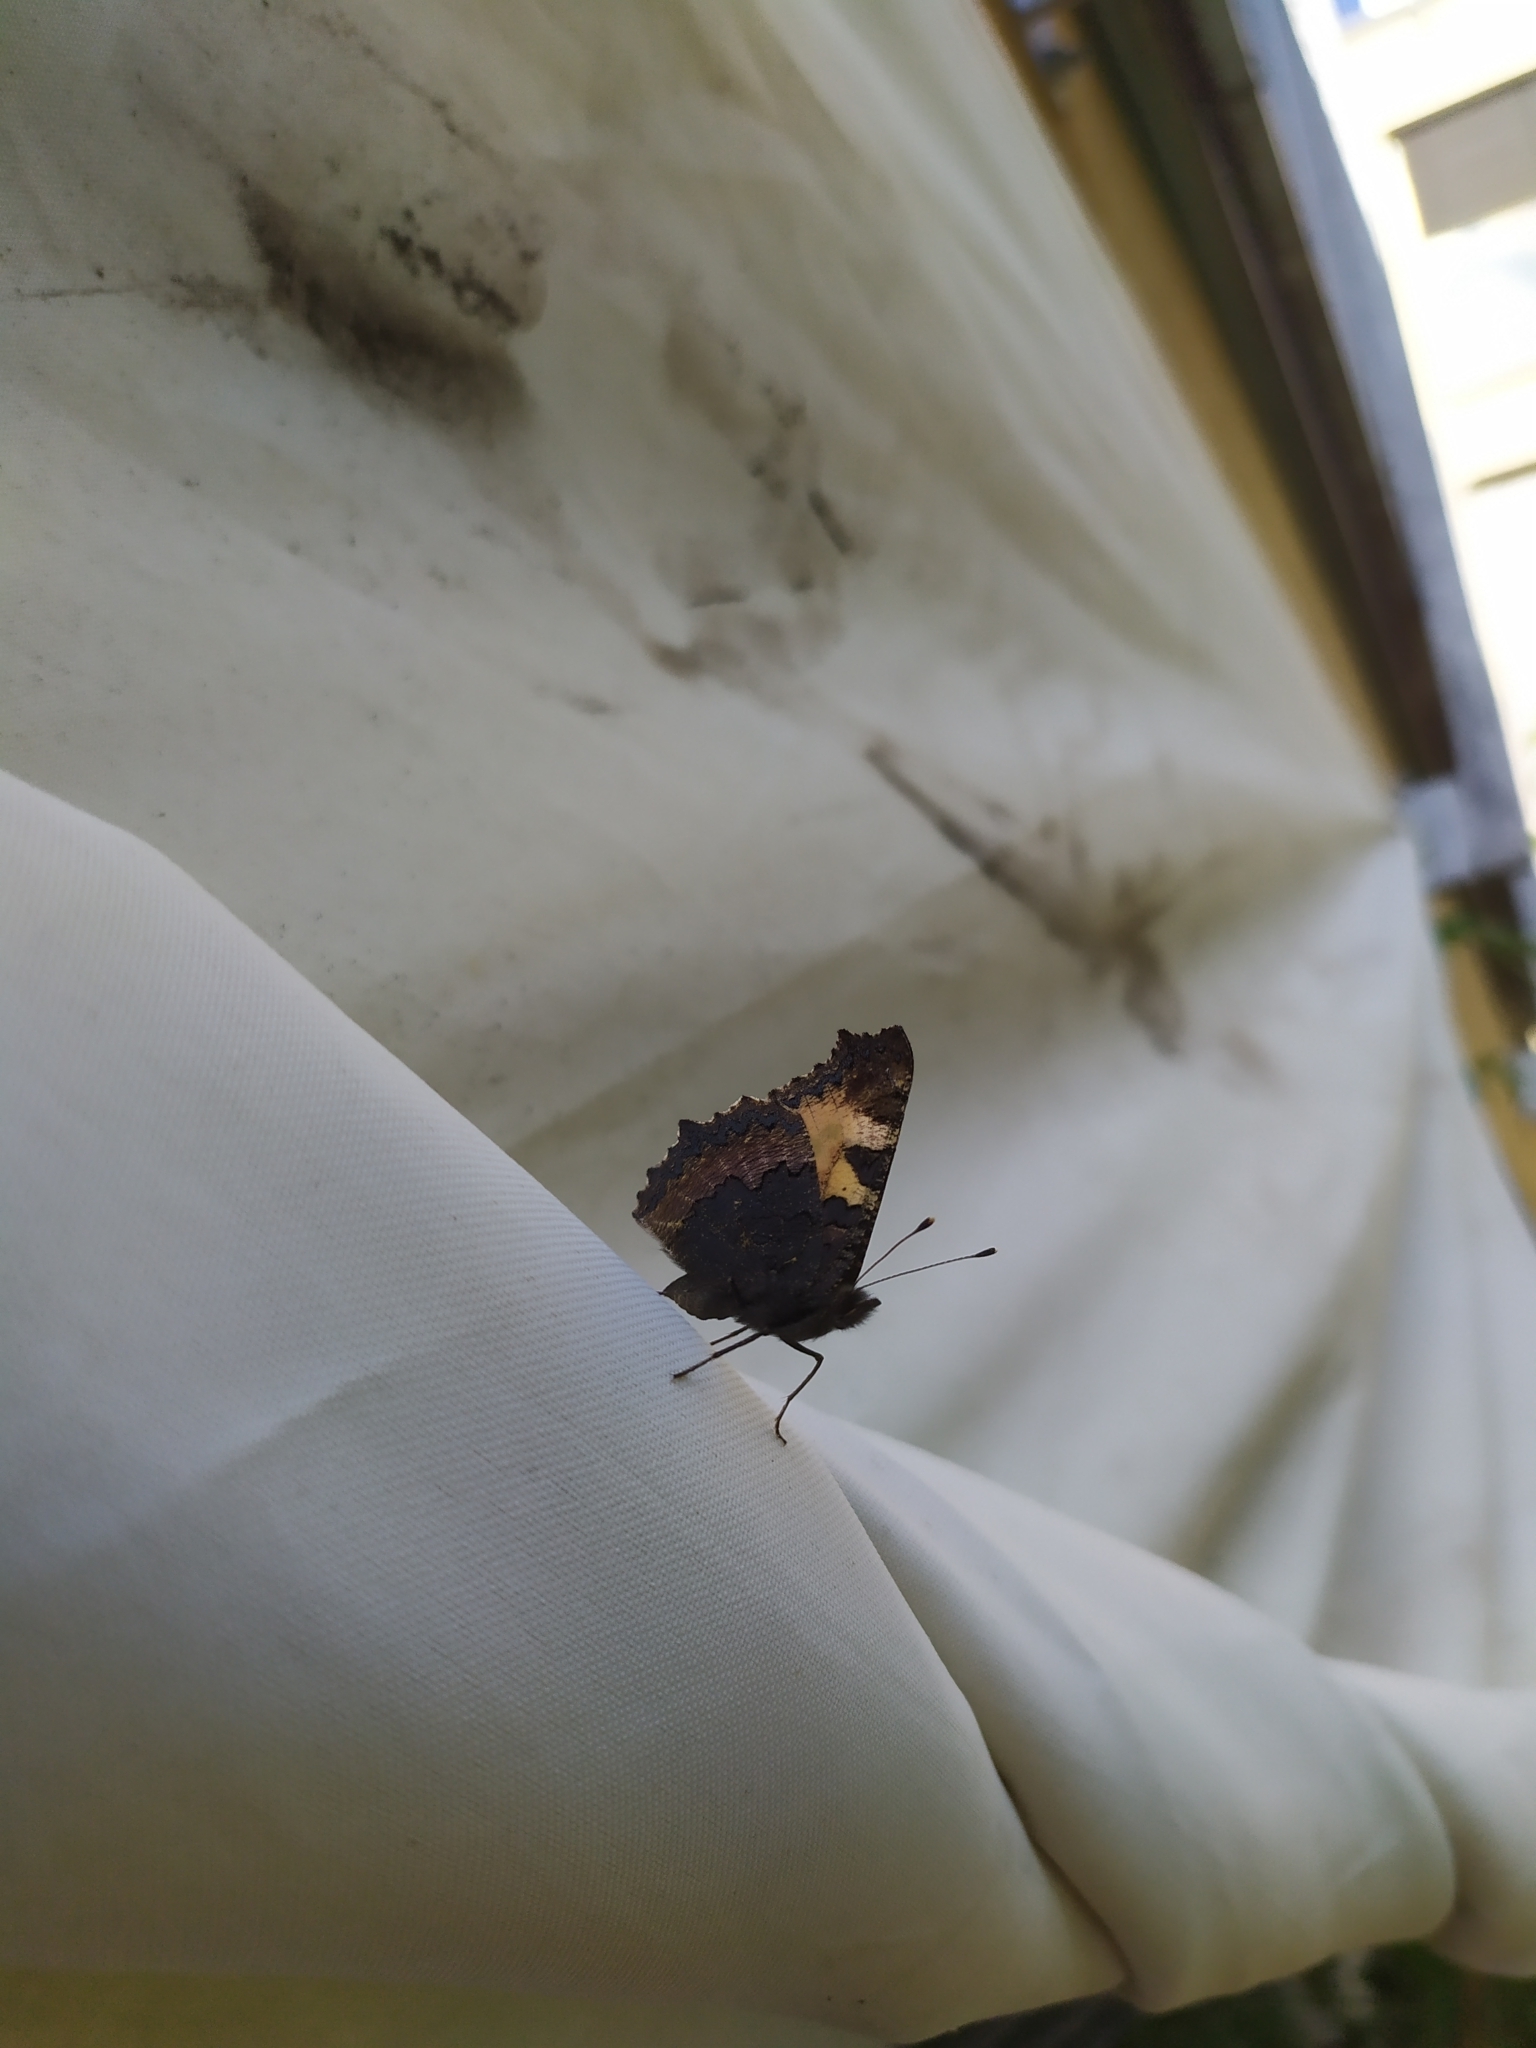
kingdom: Animalia
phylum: Arthropoda
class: Insecta
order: Lepidoptera
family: Nymphalidae
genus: Aglais
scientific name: Aglais urticae
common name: Small tortoiseshell
